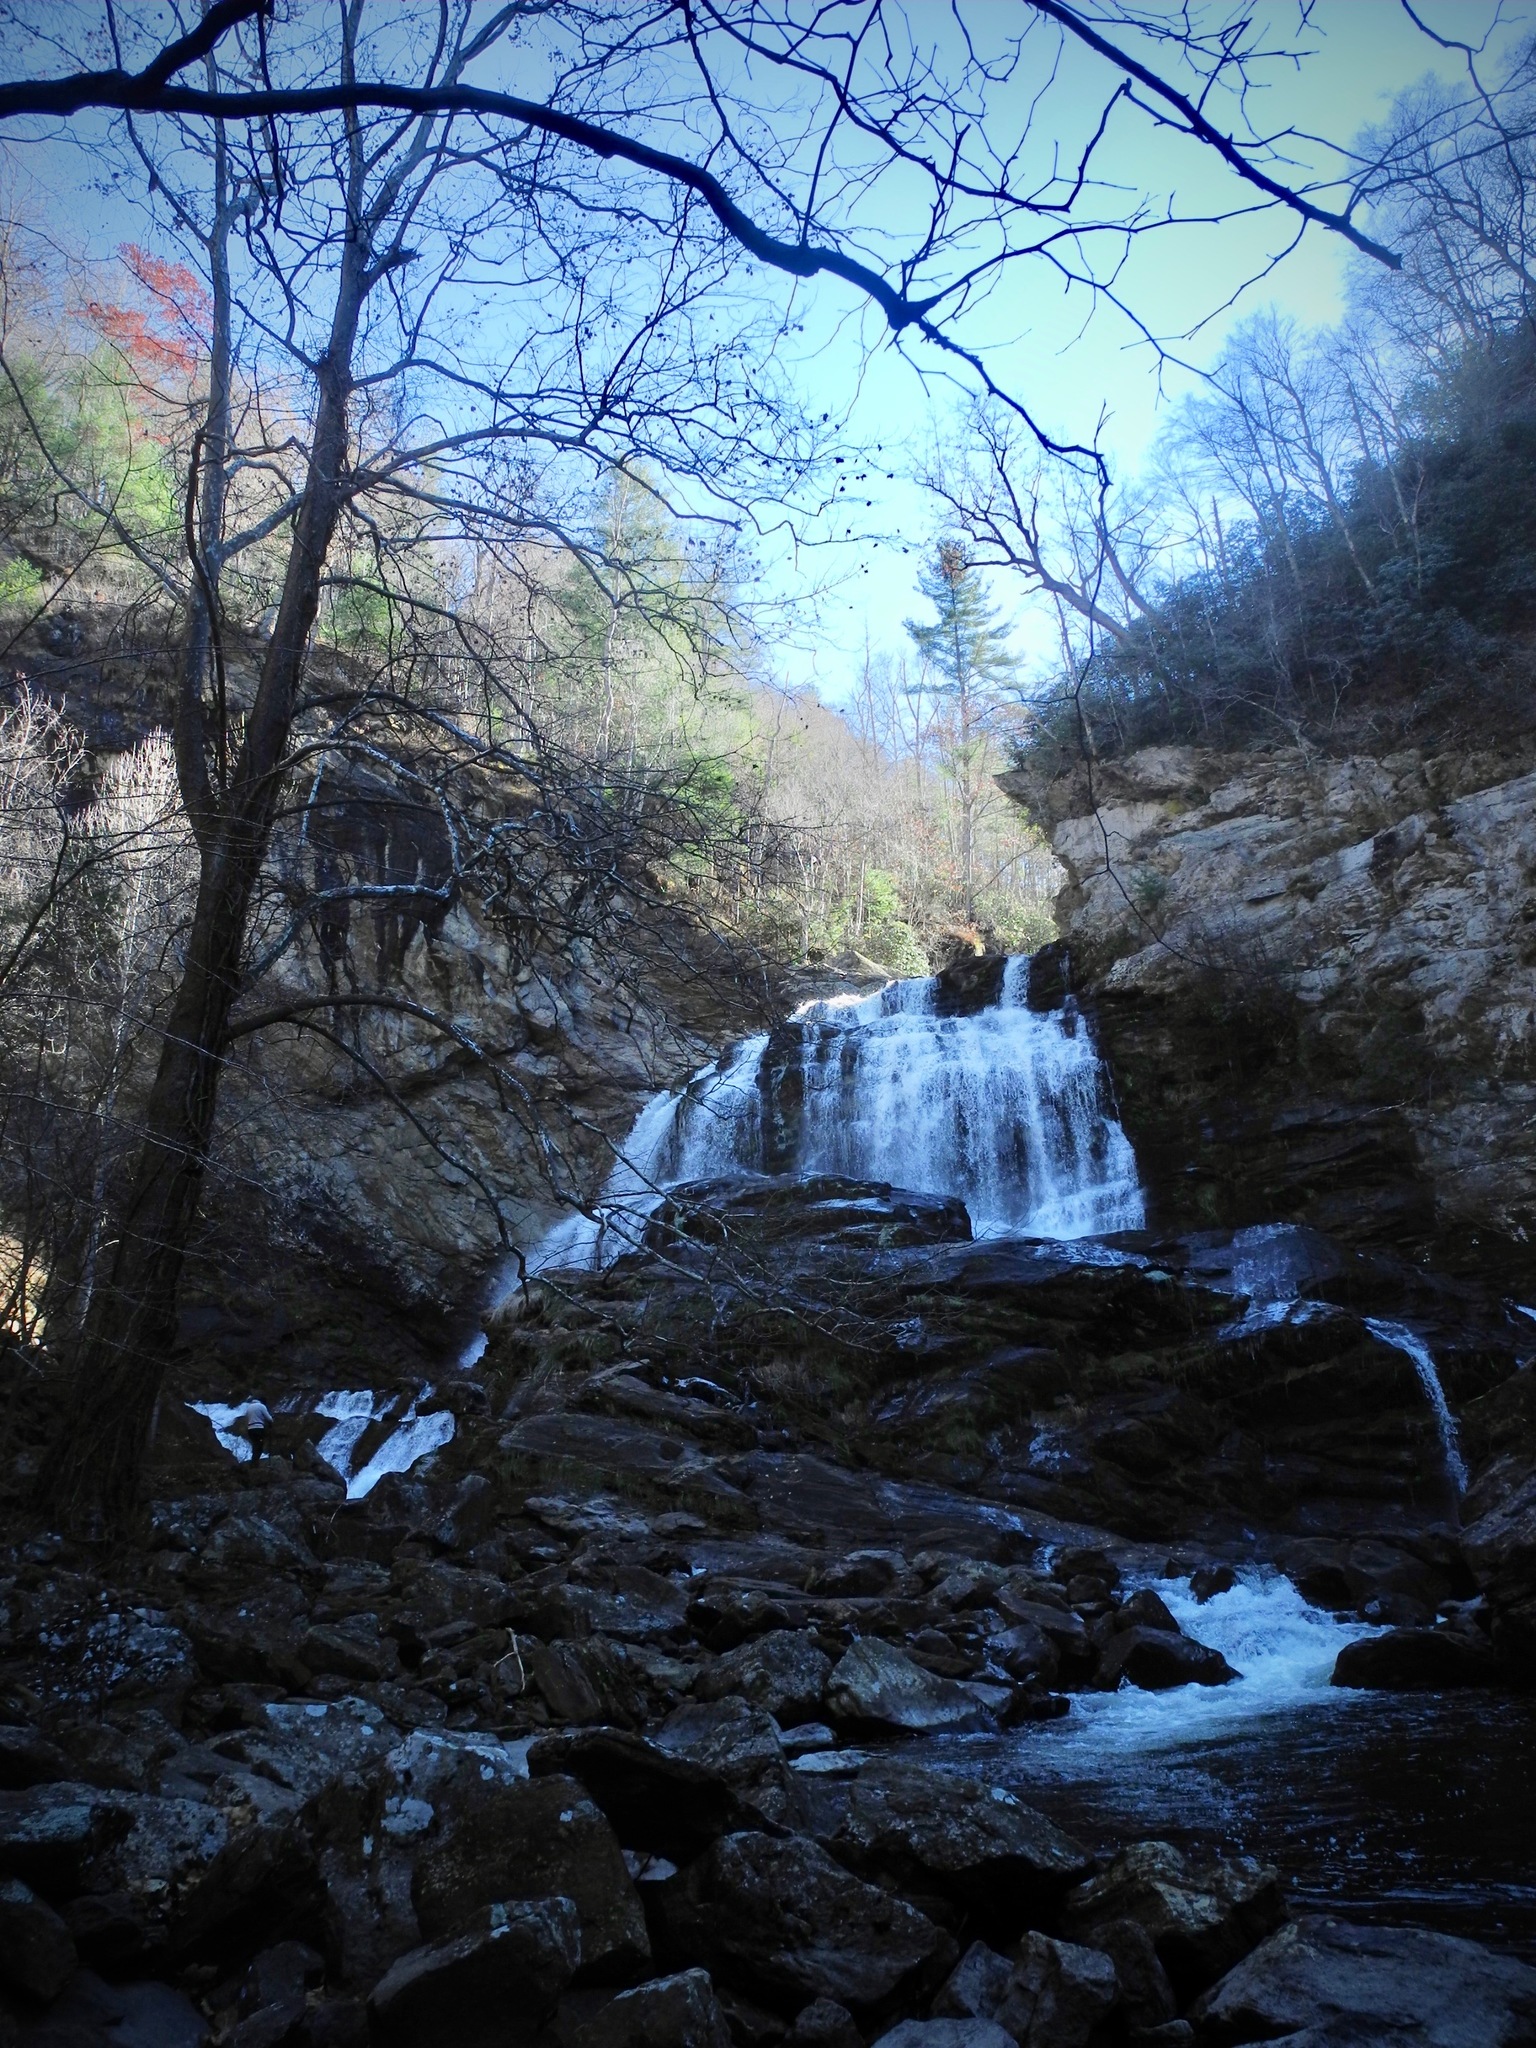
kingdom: Plantae
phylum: Tracheophyta
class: Pinopsida
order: Pinales
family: Pinaceae
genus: Pinus
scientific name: Pinus strobus
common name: Weymouth pine
